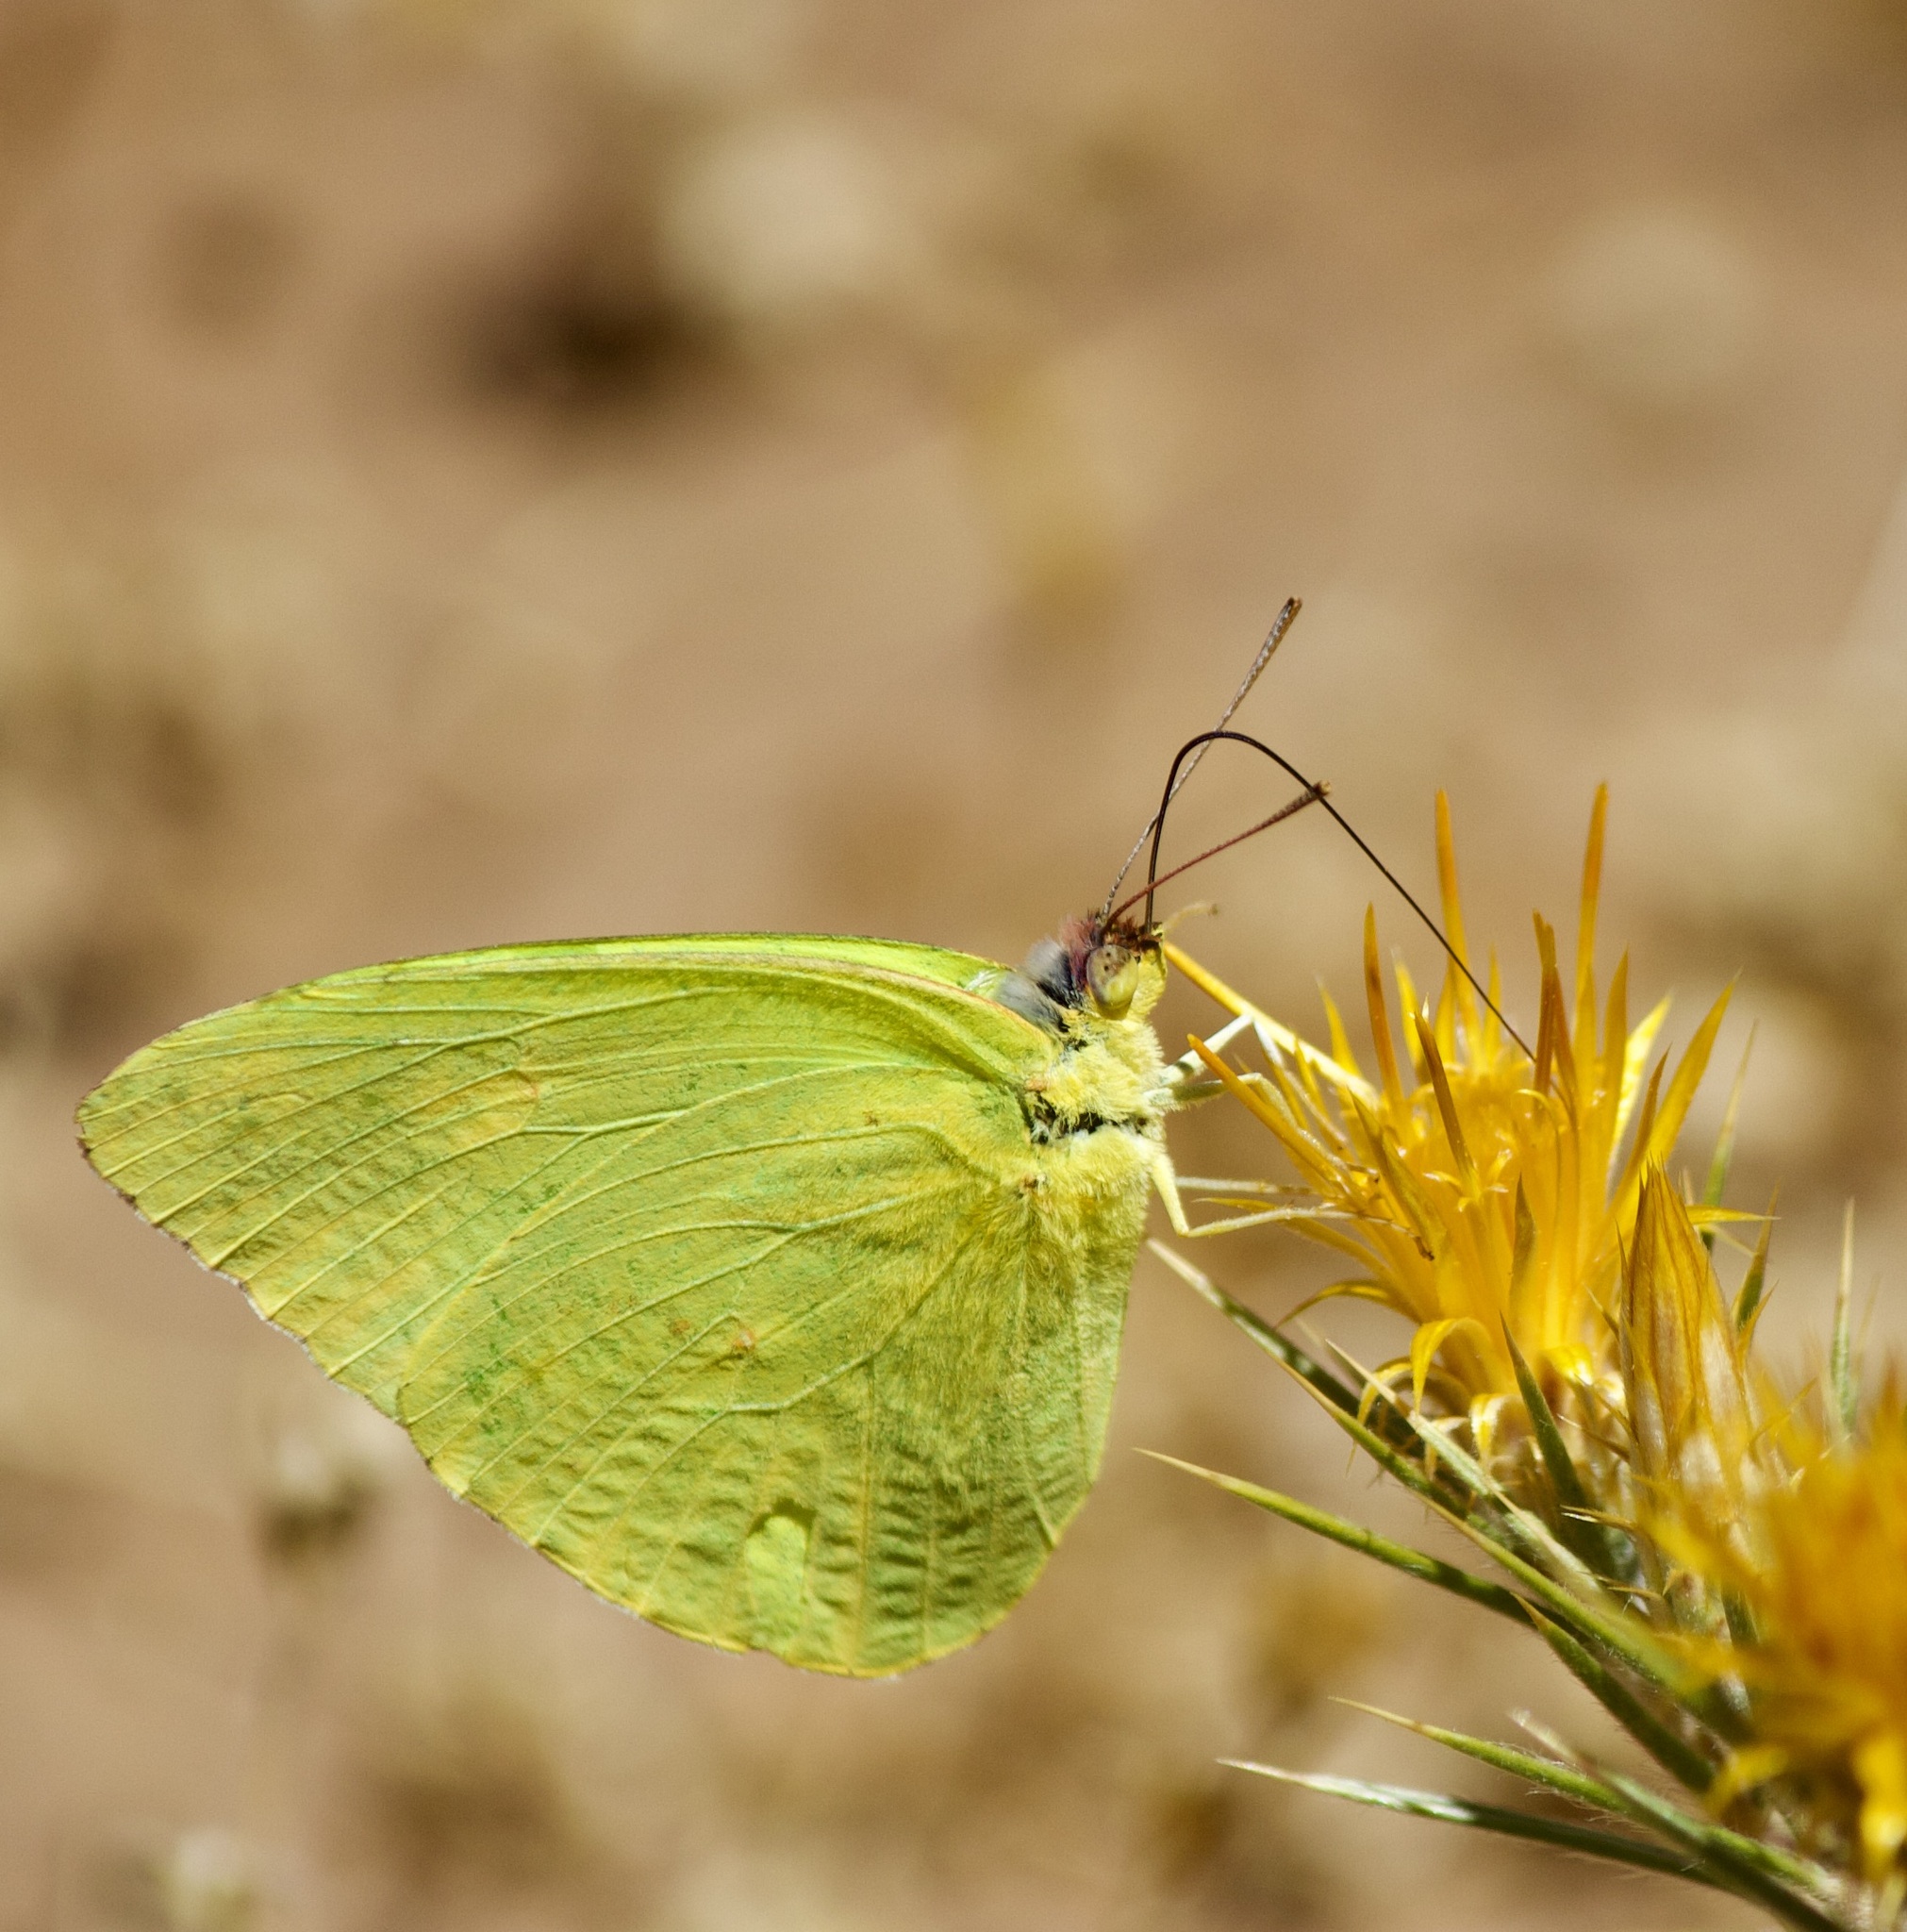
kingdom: Animalia
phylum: Arthropoda
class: Insecta
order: Lepidoptera
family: Pieridae
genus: Phoebis
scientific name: Phoebis sennae
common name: Cloudless sulphur
